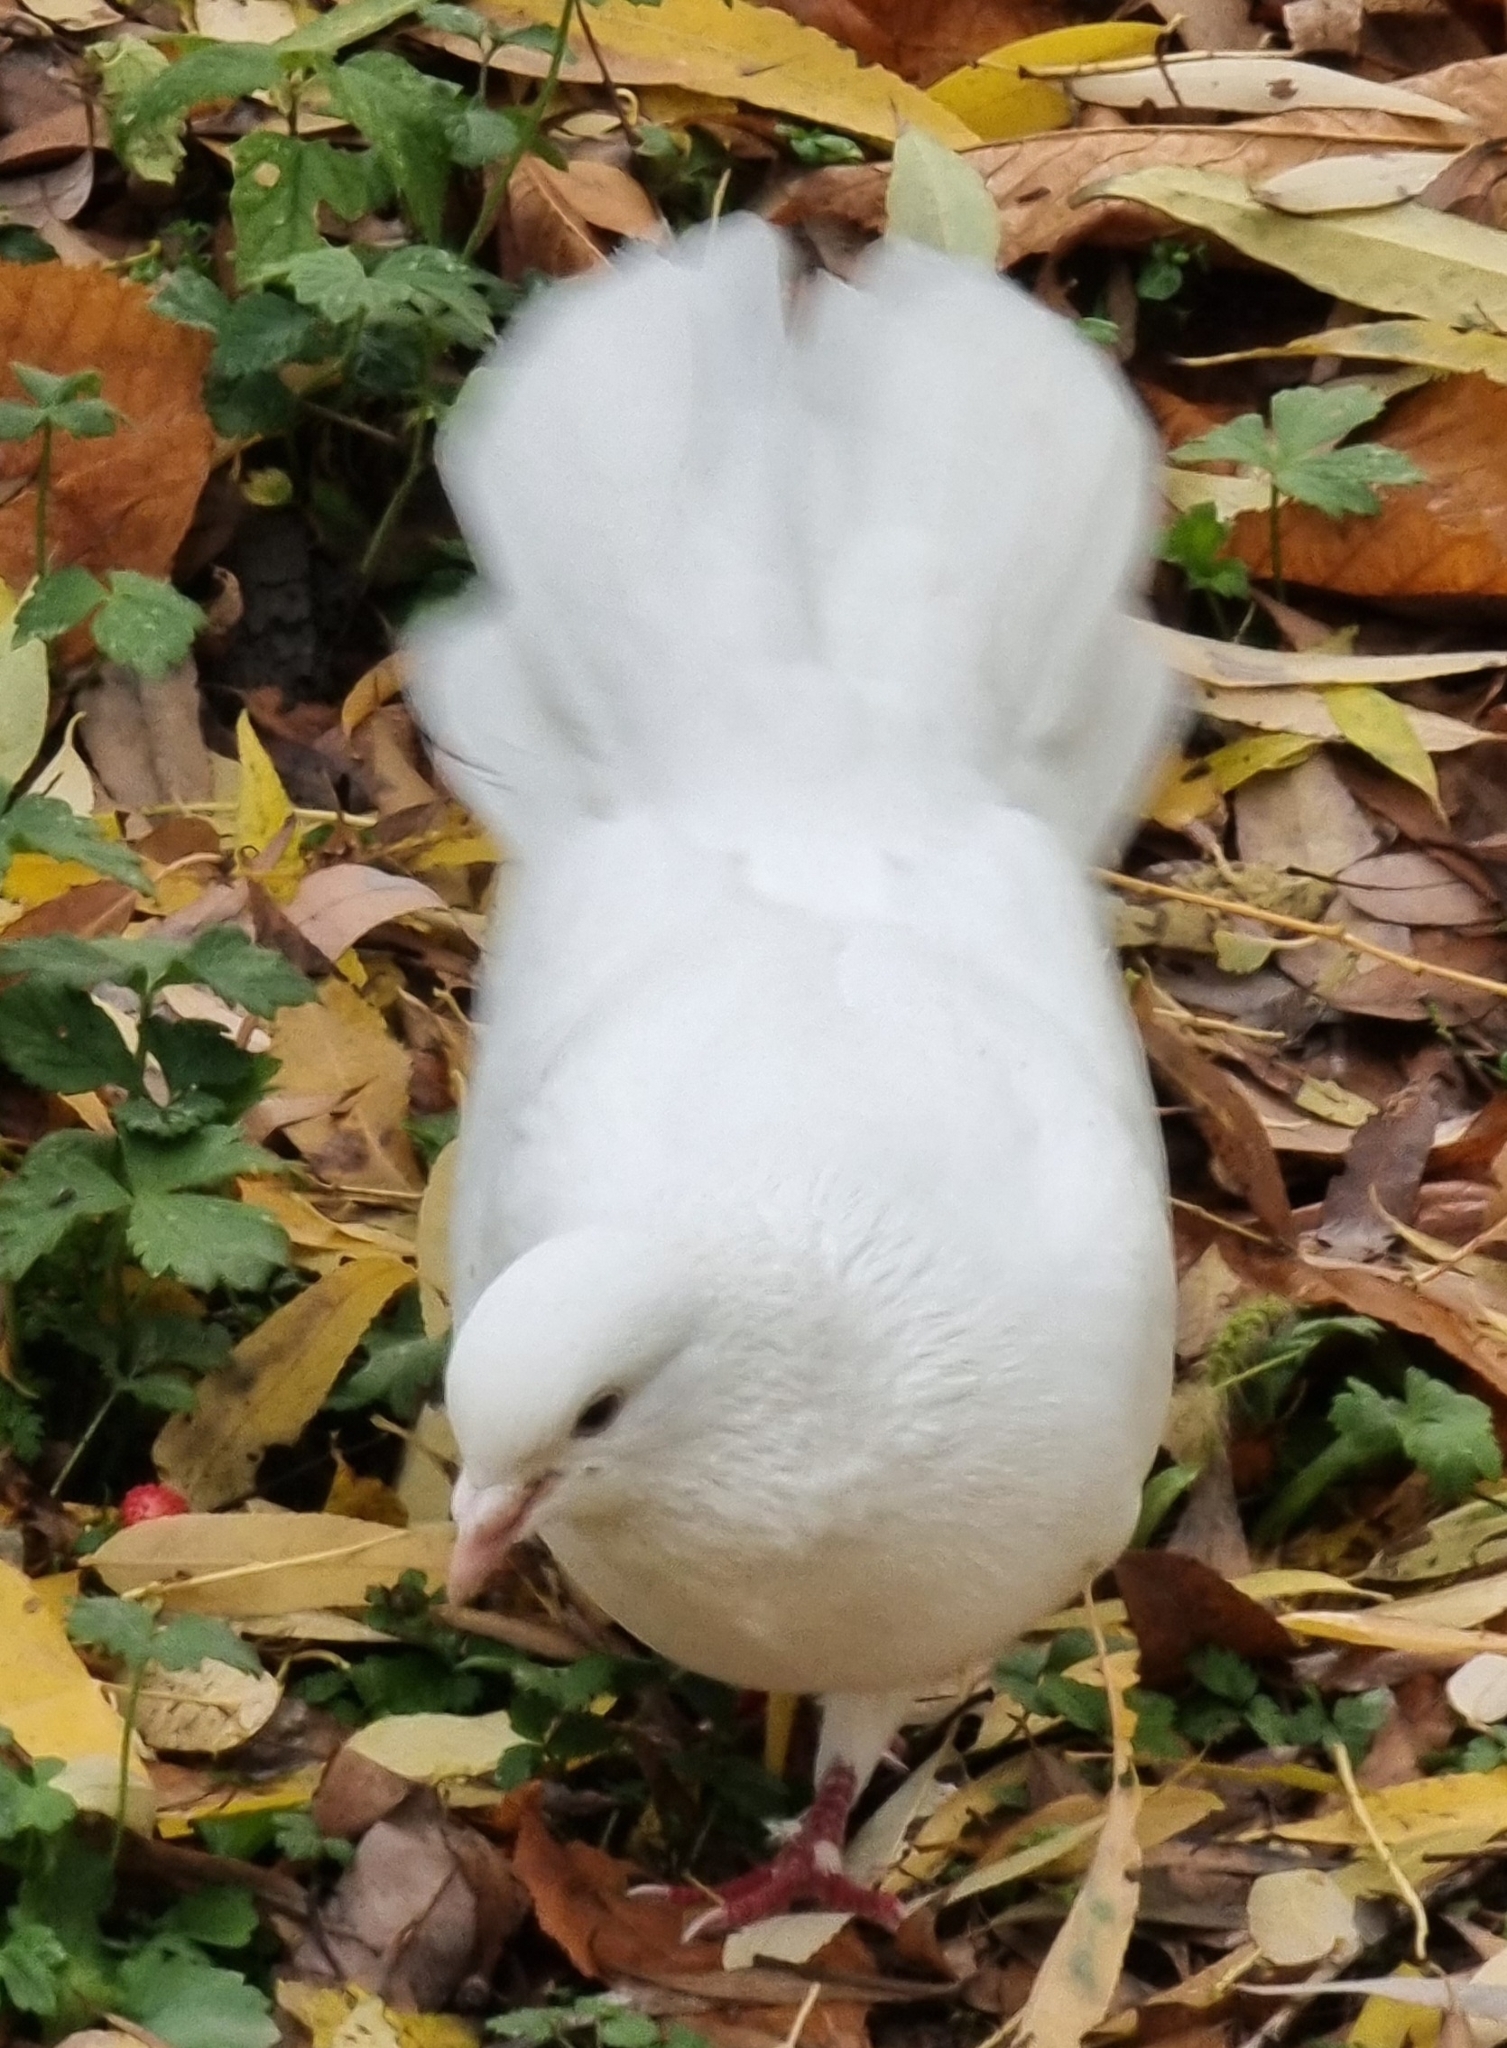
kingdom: Animalia
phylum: Chordata
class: Aves
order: Columbiformes
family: Columbidae
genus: Columba
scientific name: Columba livia
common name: Rock pigeon
